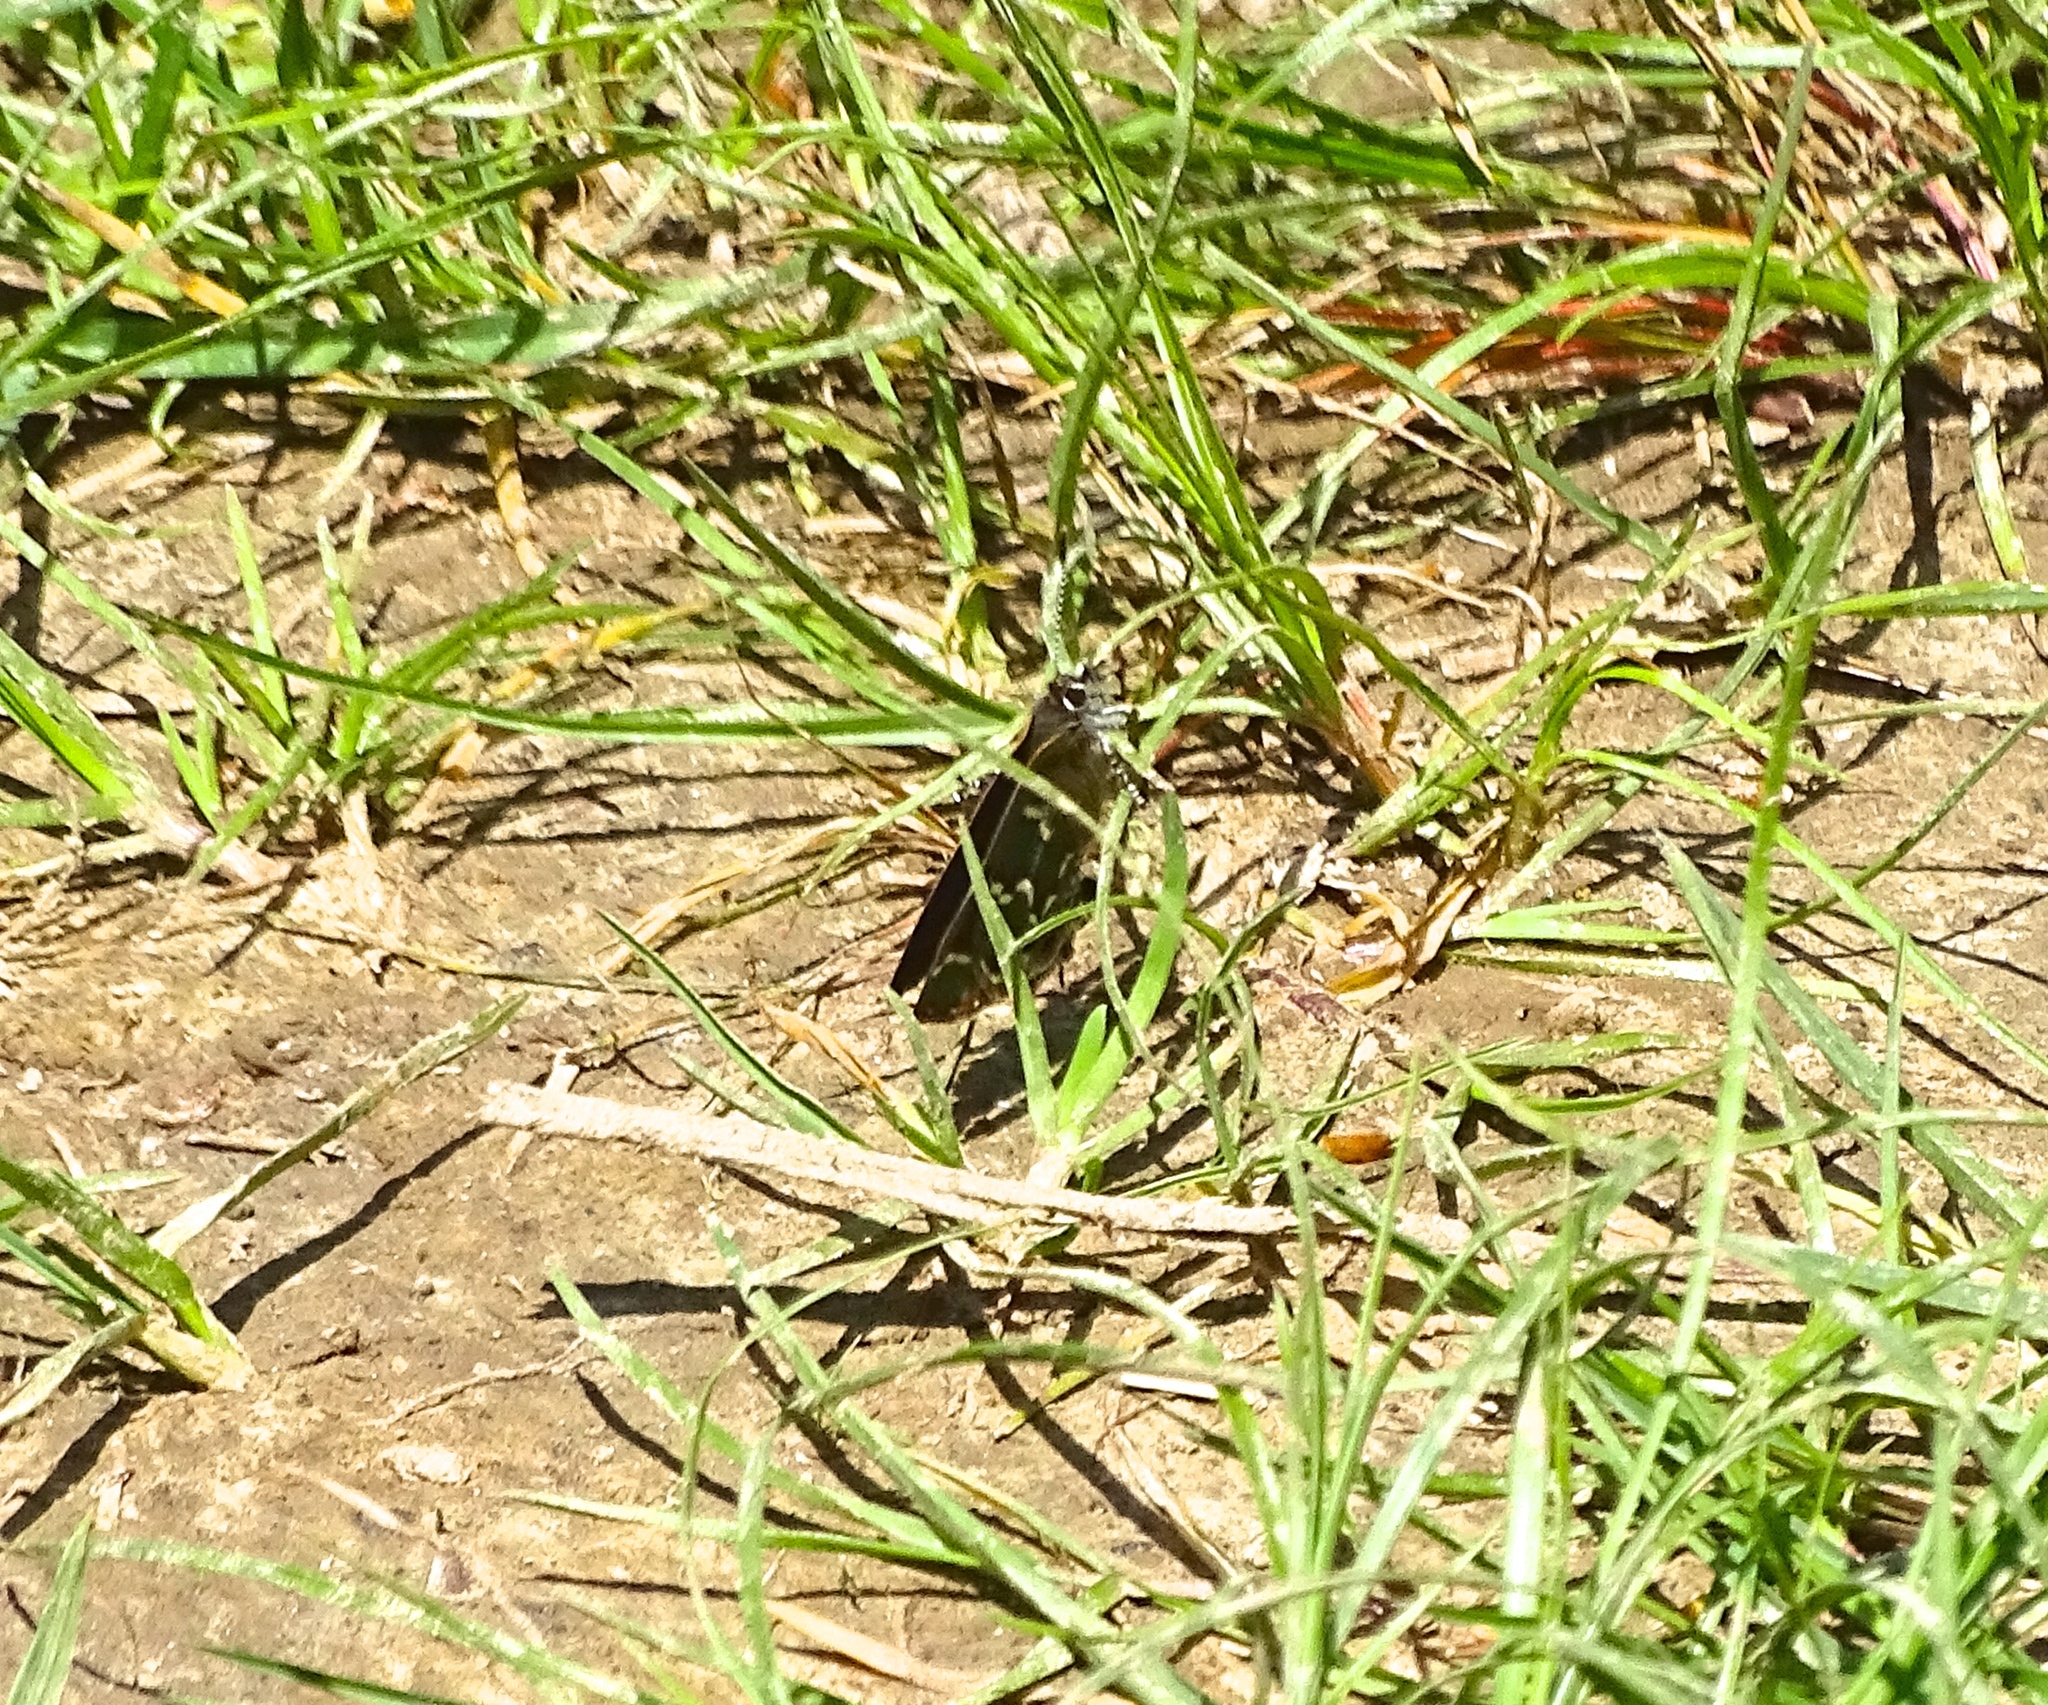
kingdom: Animalia
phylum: Arthropoda
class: Insecta
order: Lepidoptera
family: Lycaenidae
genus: Mitoura
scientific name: Mitoura gryneus
